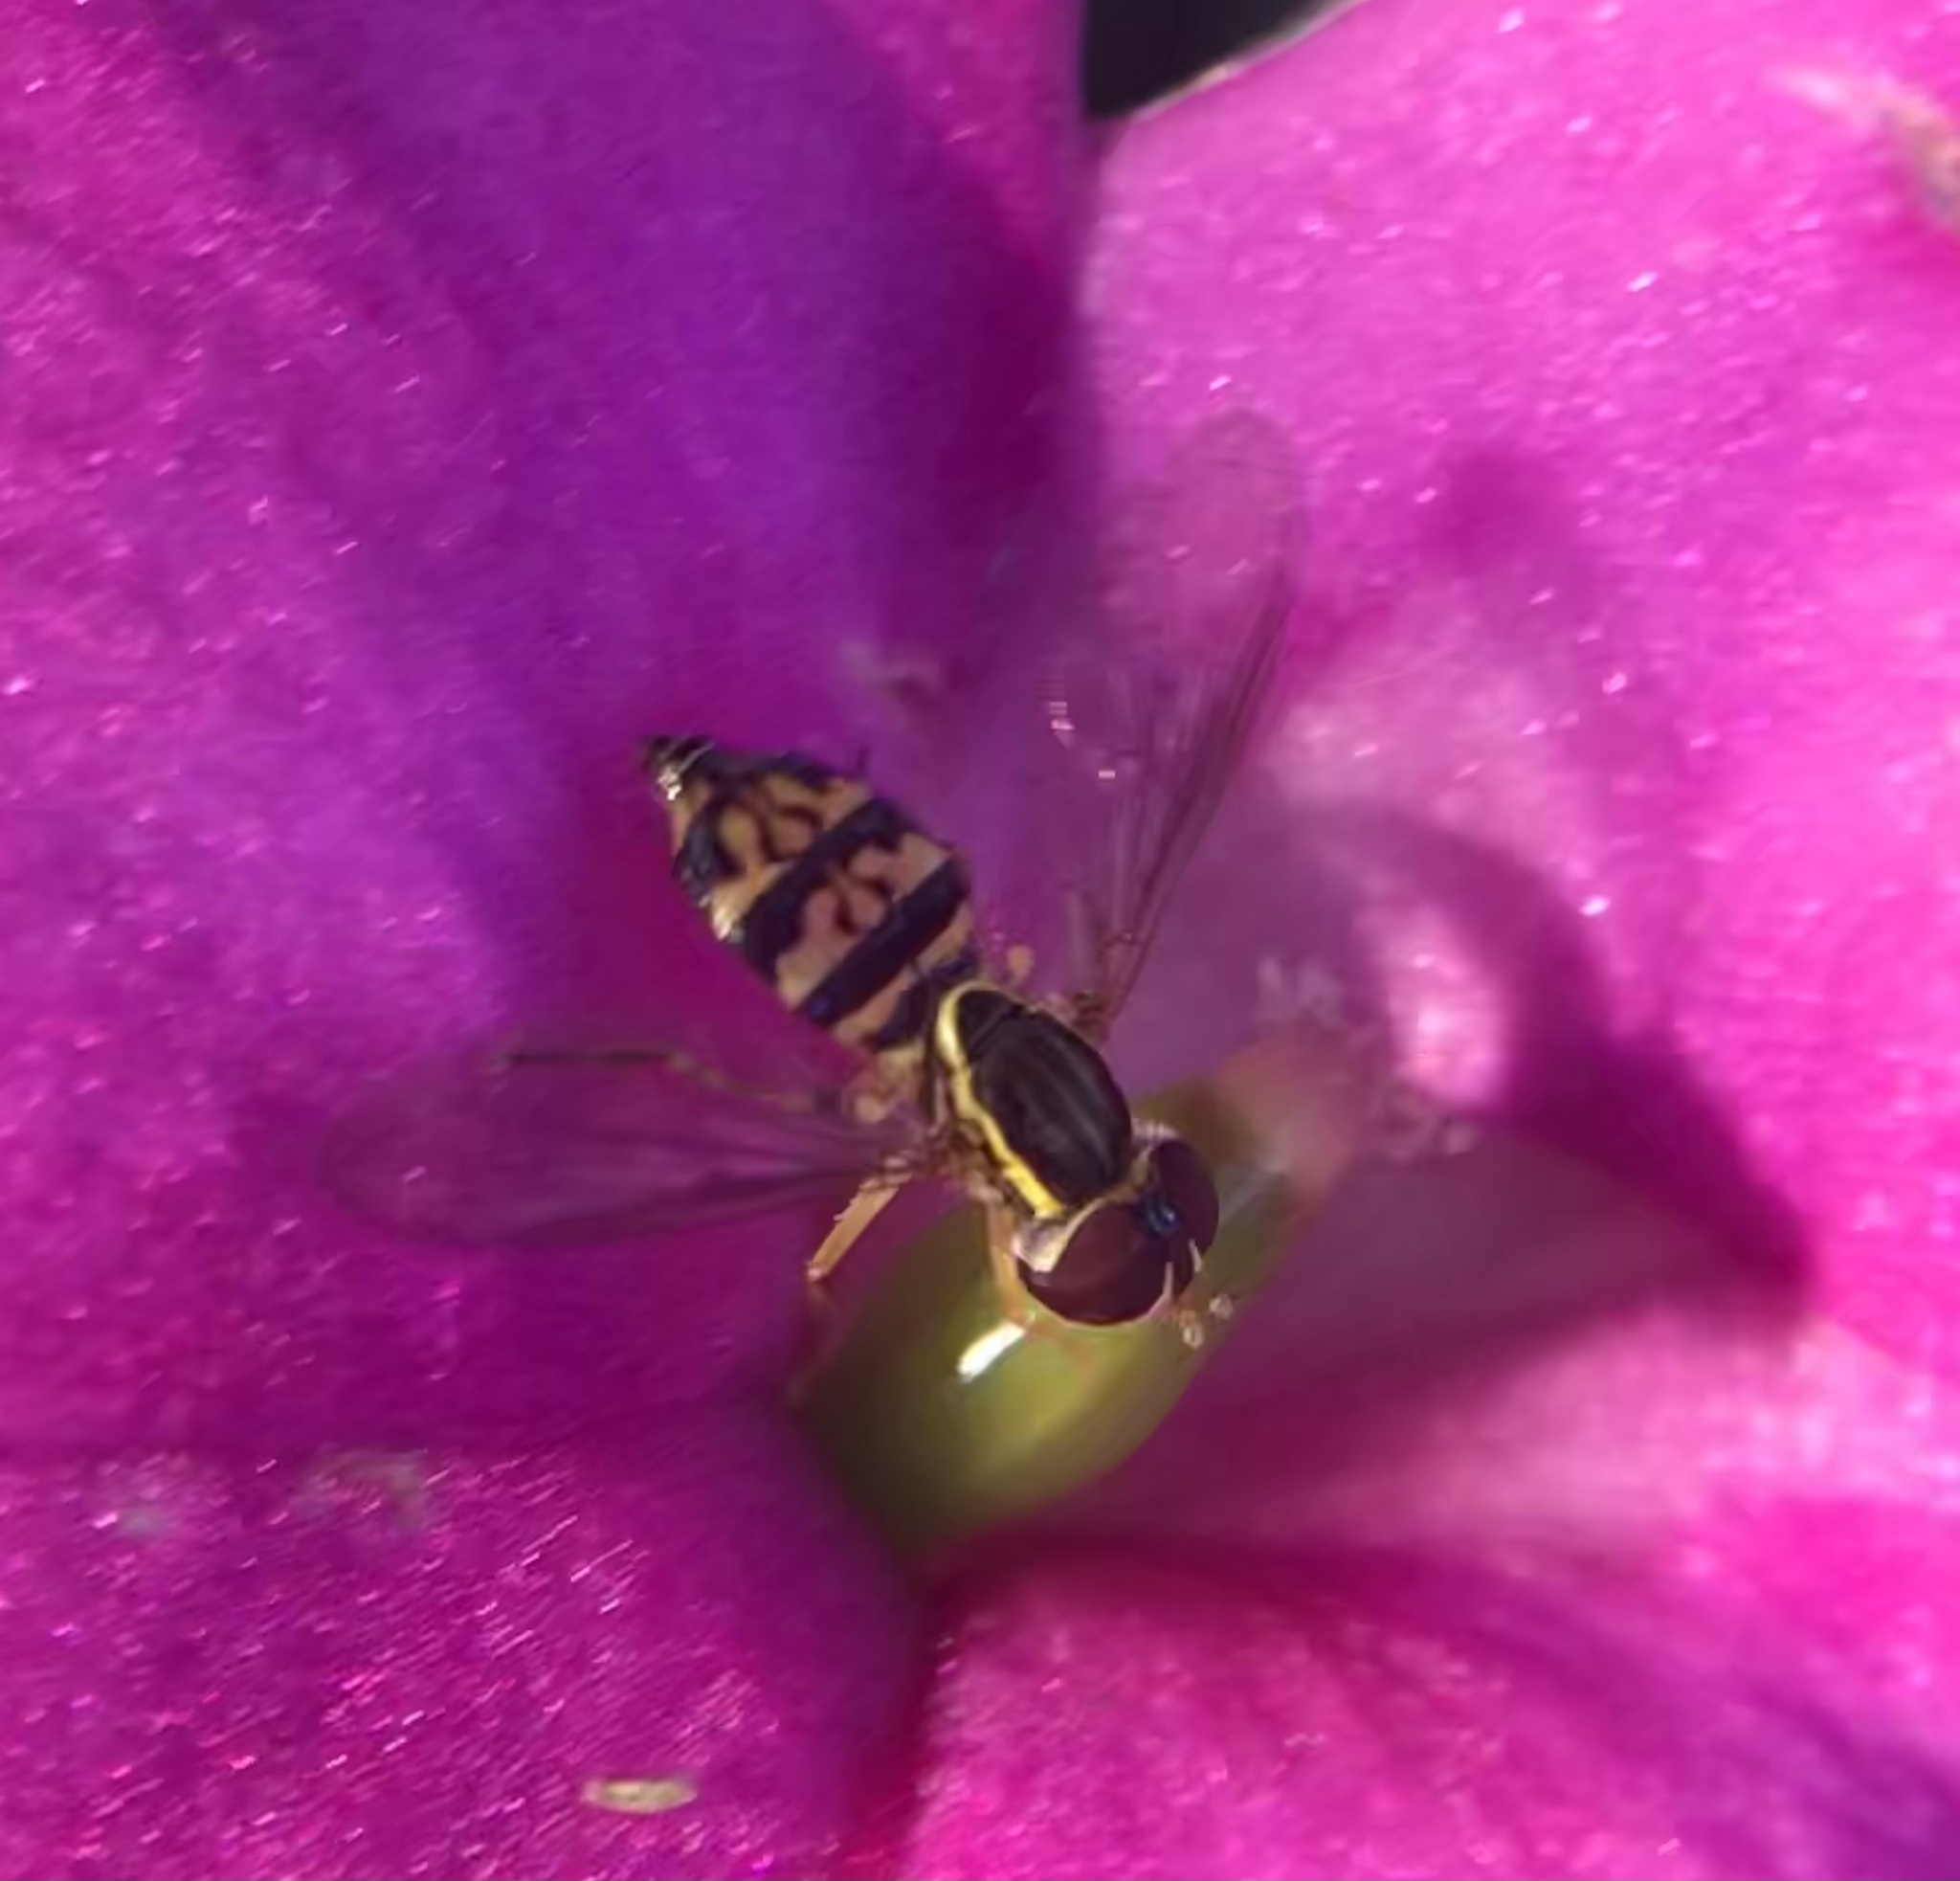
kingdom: Animalia
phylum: Arthropoda
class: Insecta
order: Diptera
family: Syrphidae
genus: Toxomerus
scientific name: Toxomerus geminatus
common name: Eastern calligrapher
